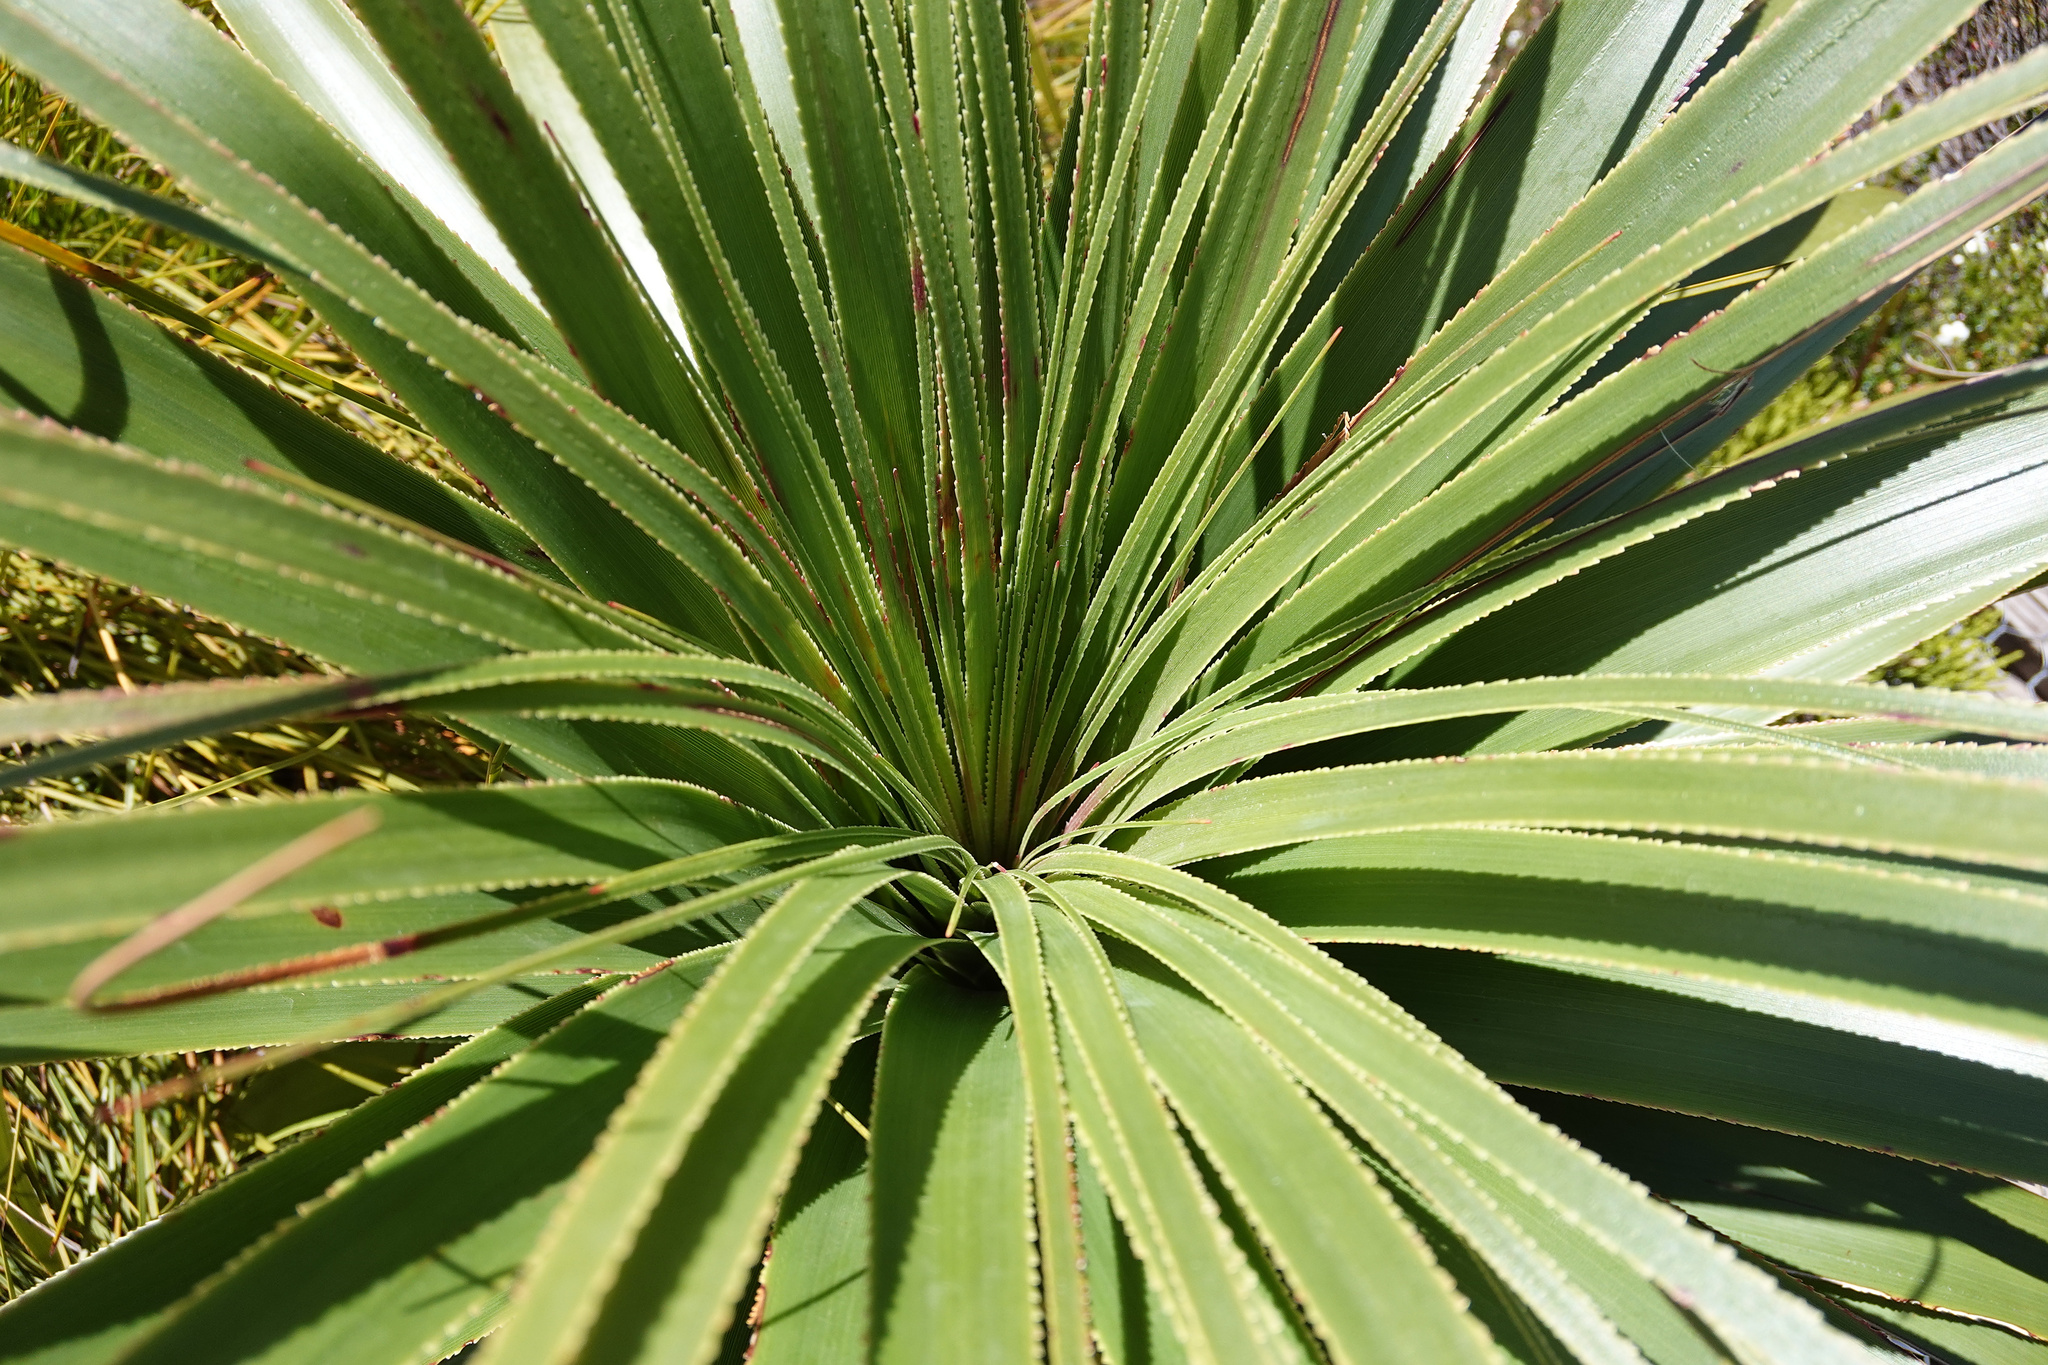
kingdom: Plantae
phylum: Tracheophyta
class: Magnoliopsida
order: Ericales
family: Ericaceae
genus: Dracophyllum
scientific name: Dracophyllum pandanifolium
